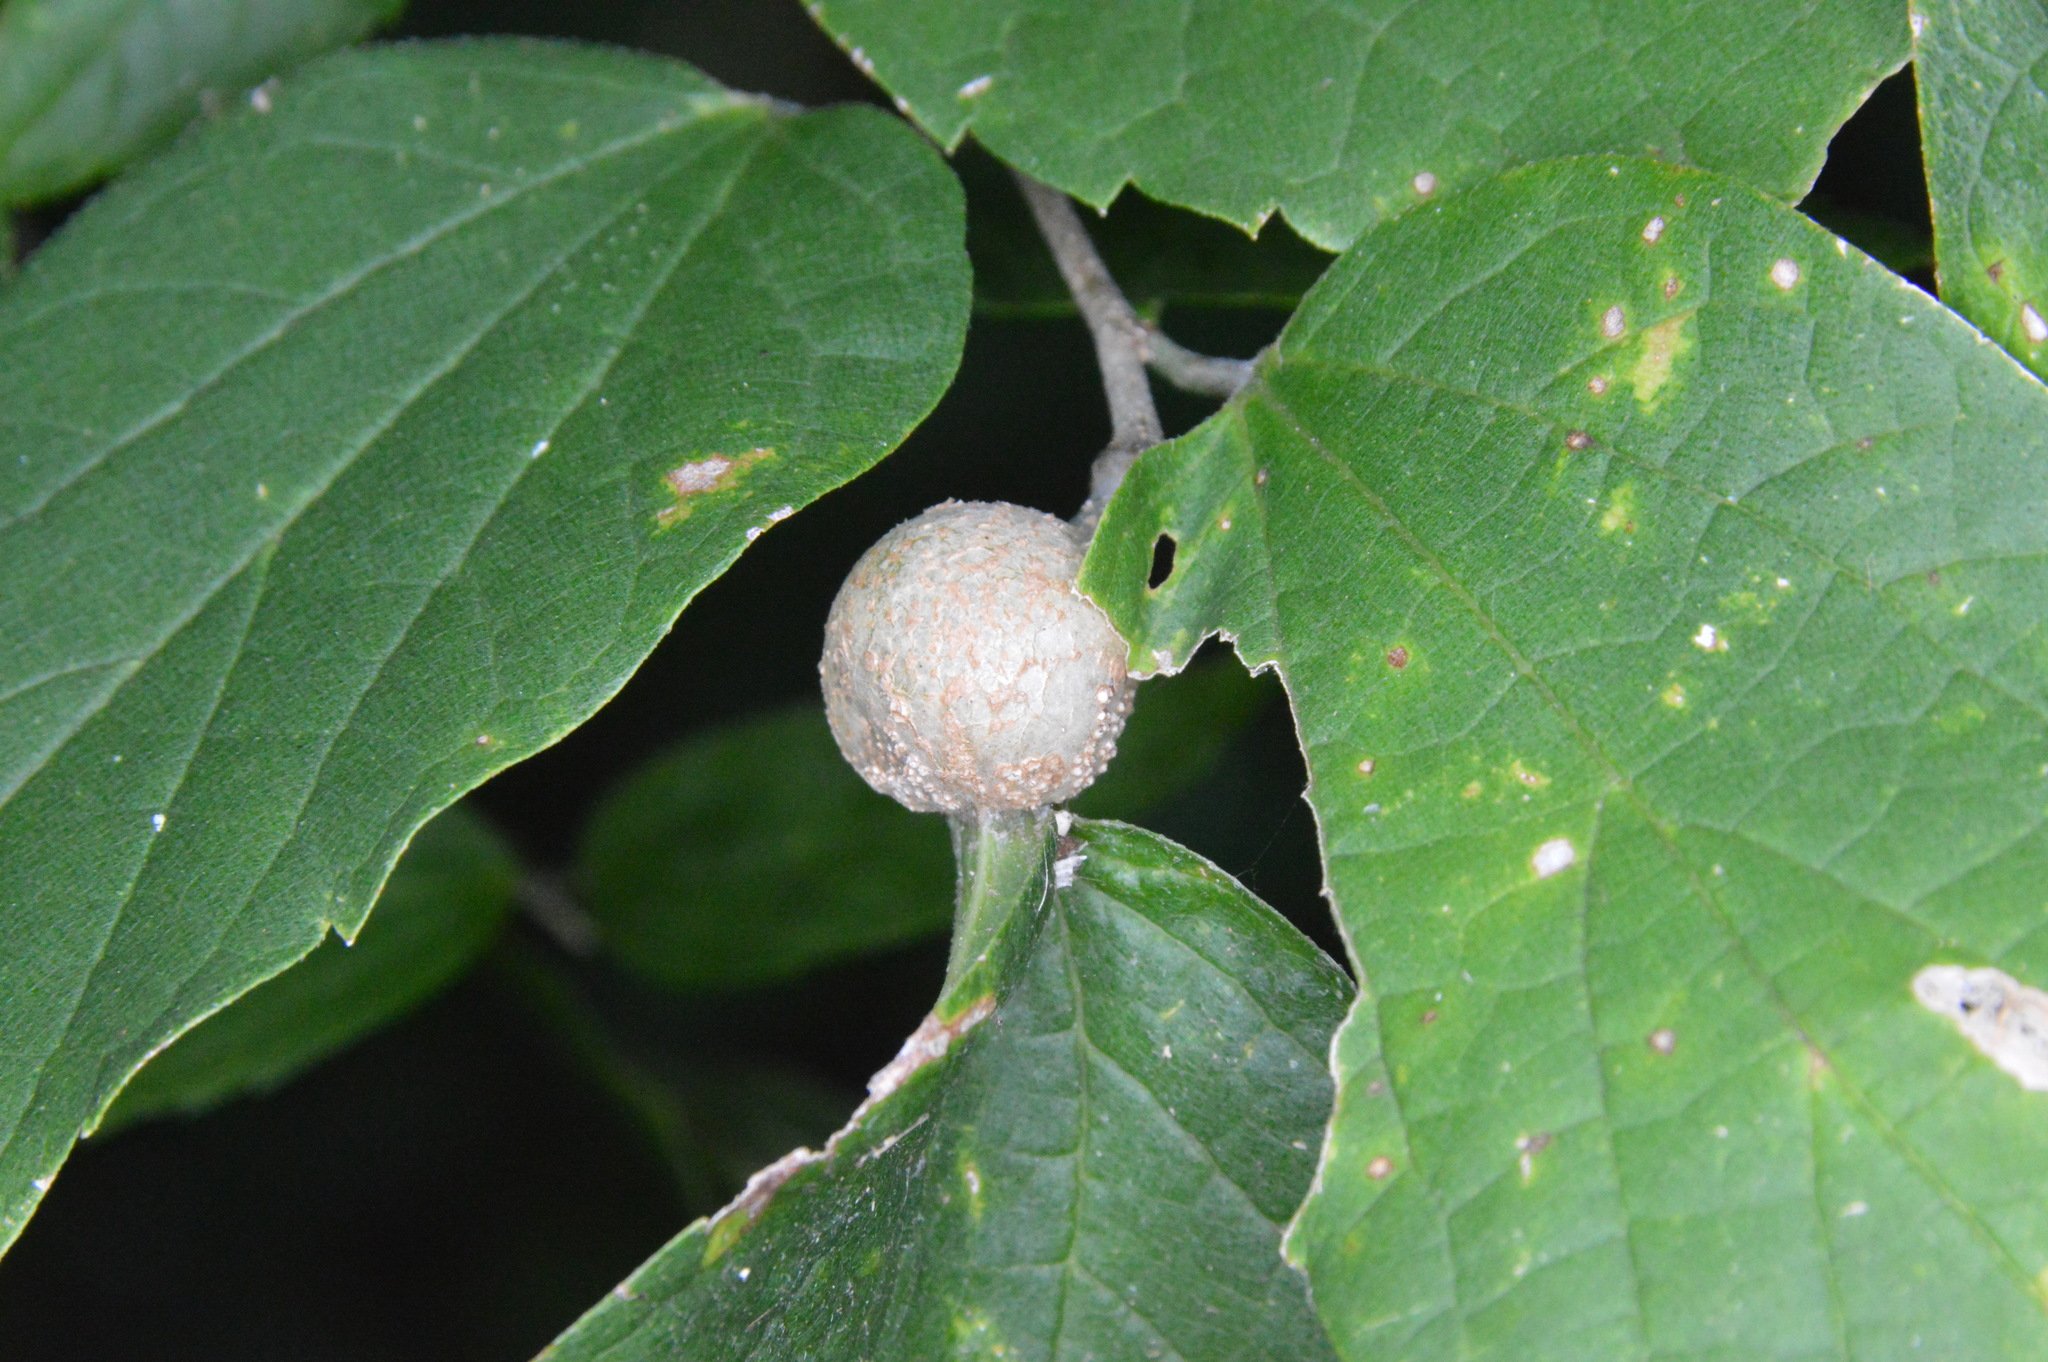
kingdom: Animalia
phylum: Arthropoda
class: Insecta
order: Hemiptera
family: Aphalaridae
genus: Pachypsylla
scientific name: Pachypsylla venusta
